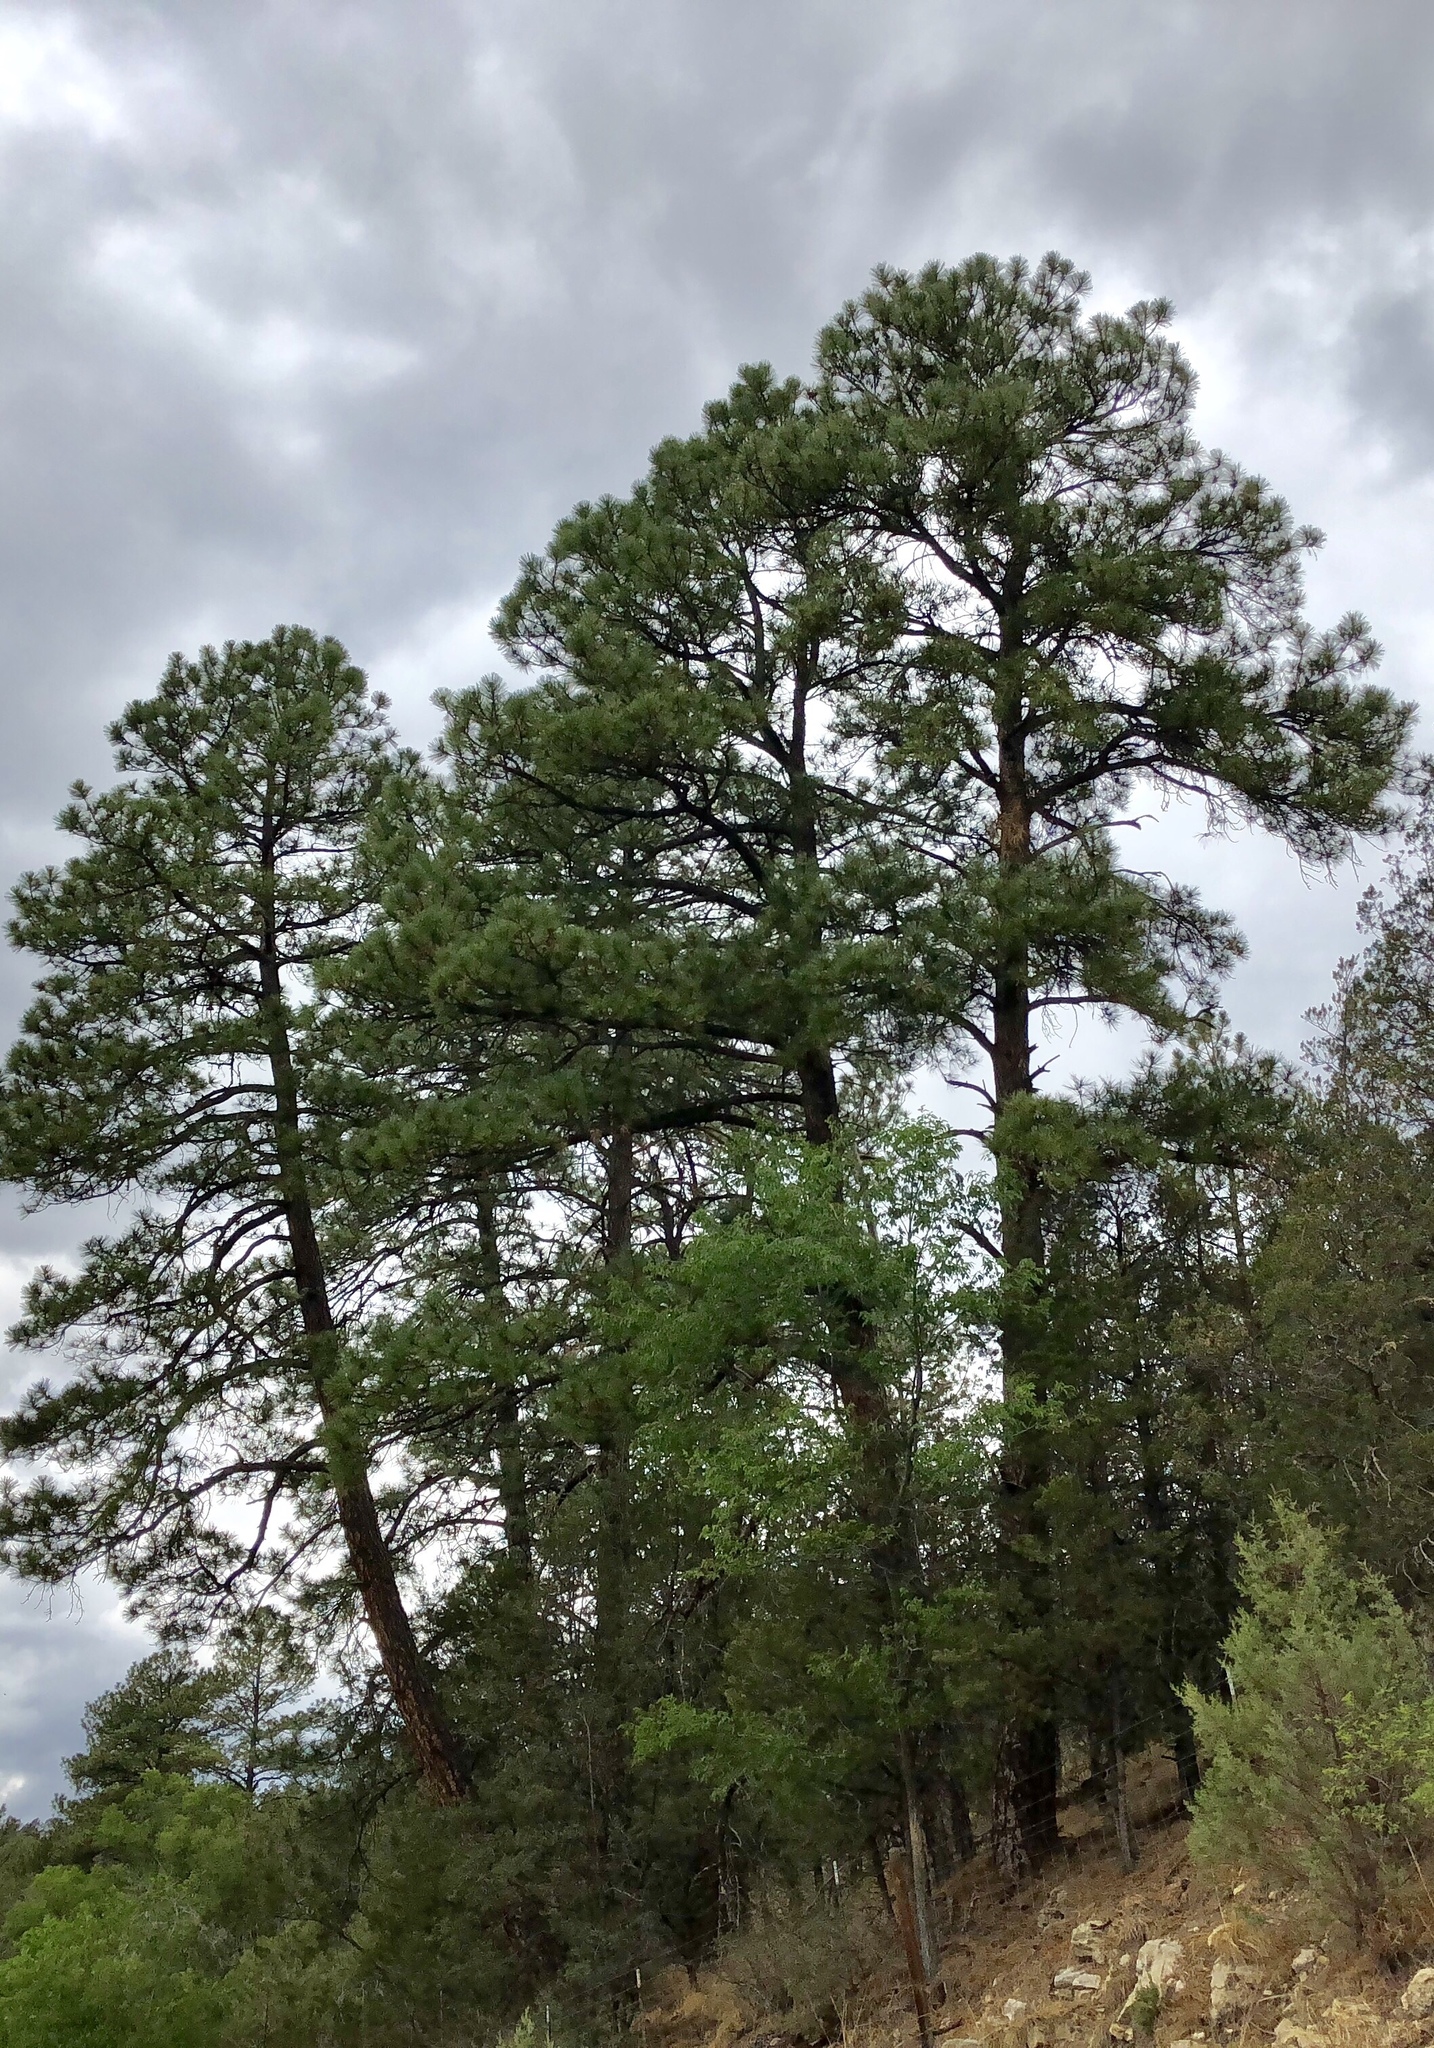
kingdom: Plantae
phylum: Tracheophyta
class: Pinopsida
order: Pinales
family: Pinaceae
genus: Pinus
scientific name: Pinus ponderosa
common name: Western yellow-pine
